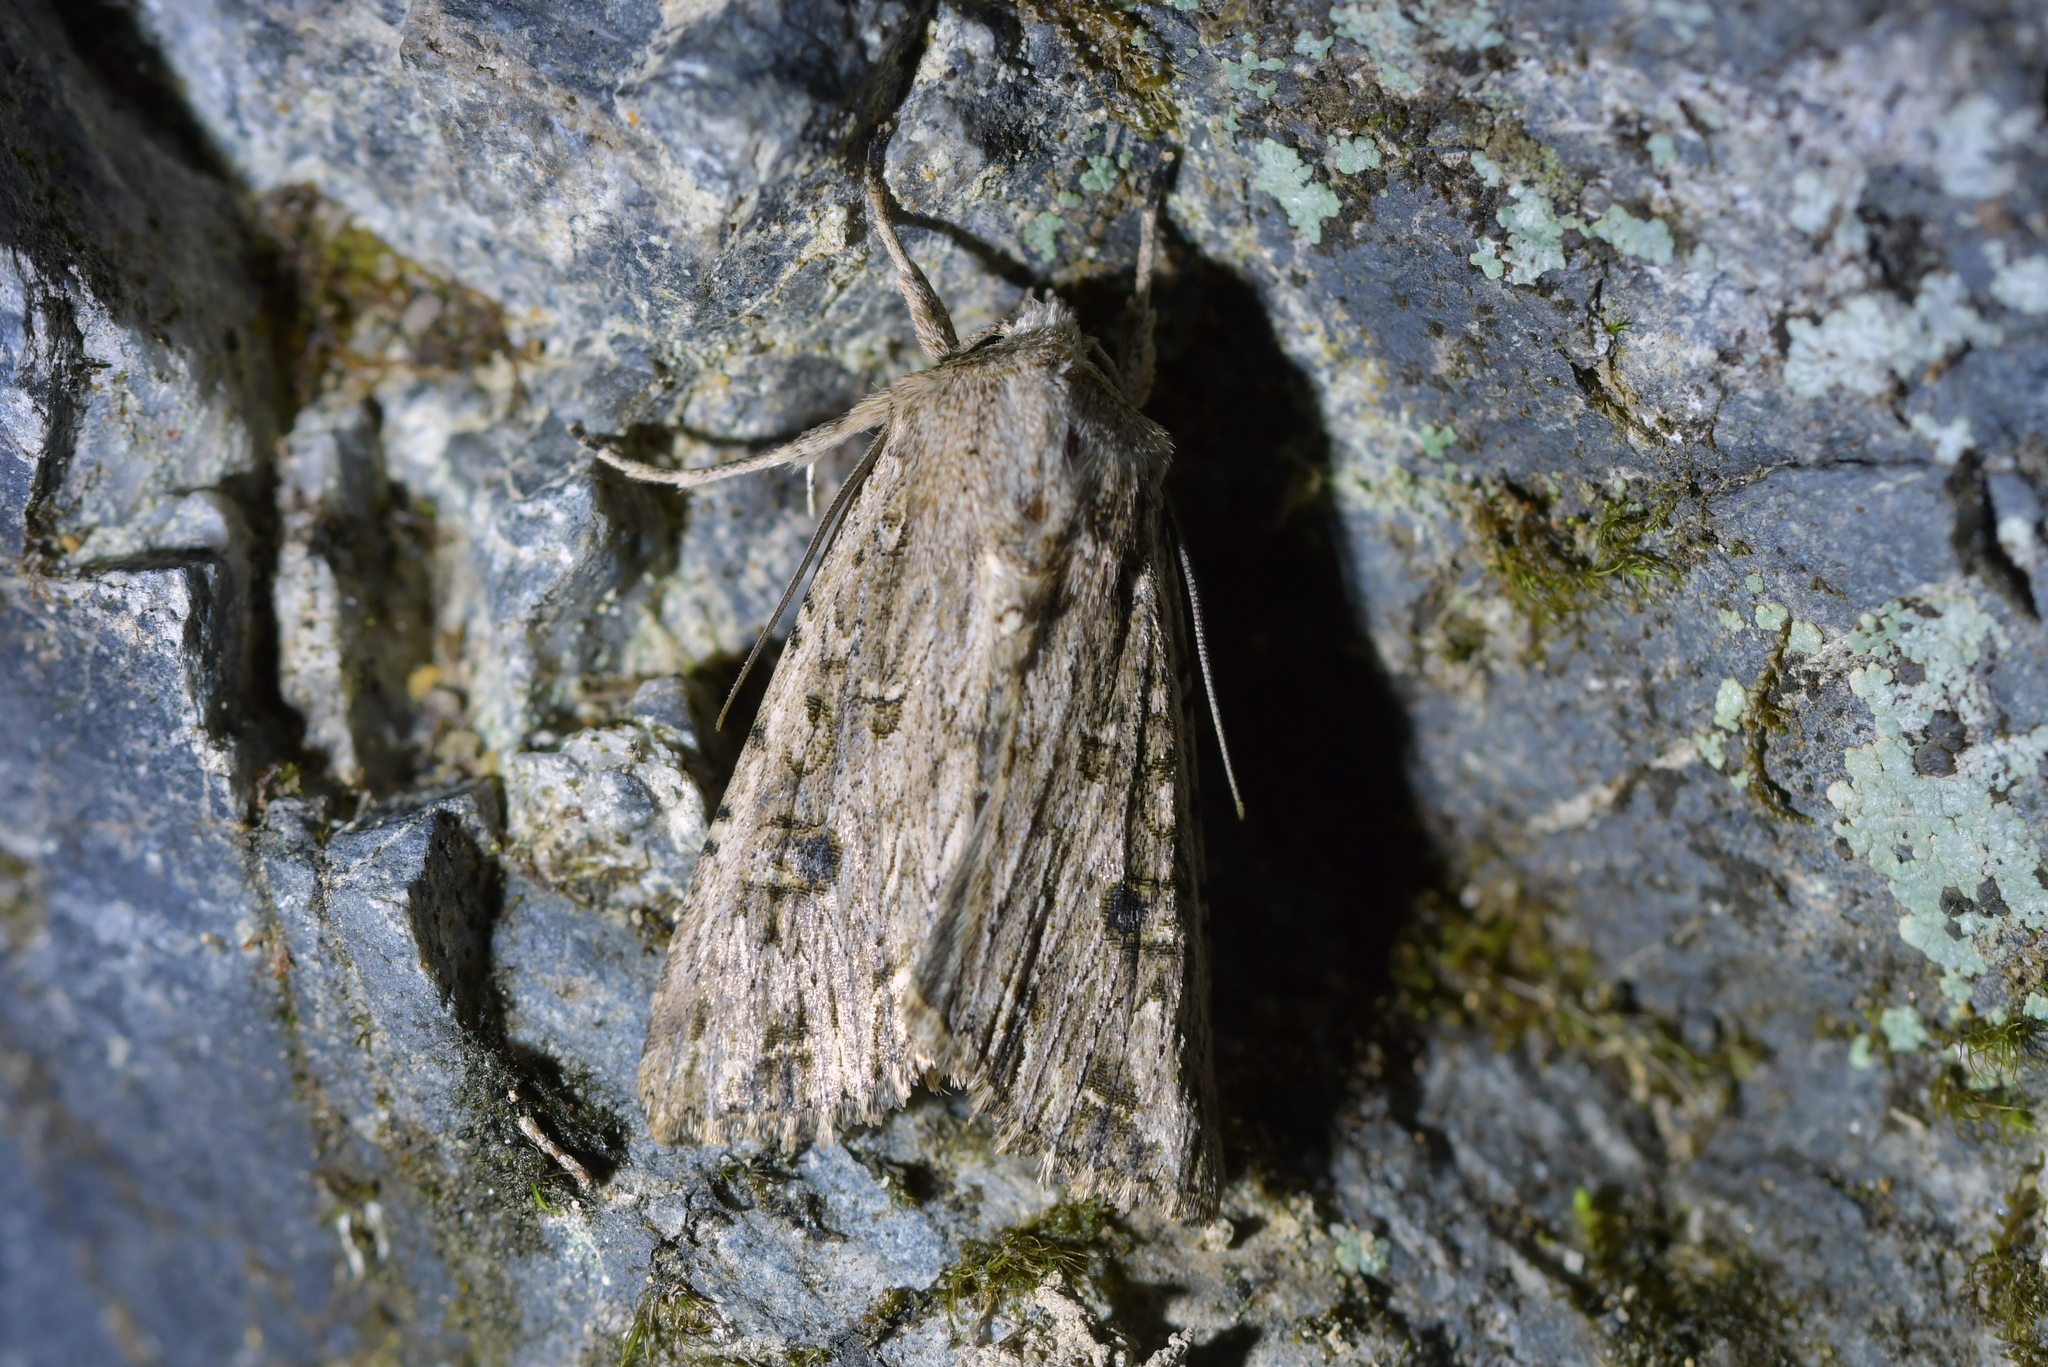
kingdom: Animalia
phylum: Arthropoda
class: Insecta
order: Lepidoptera
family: Noctuidae
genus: Ichneutica
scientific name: Ichneutica lignana
